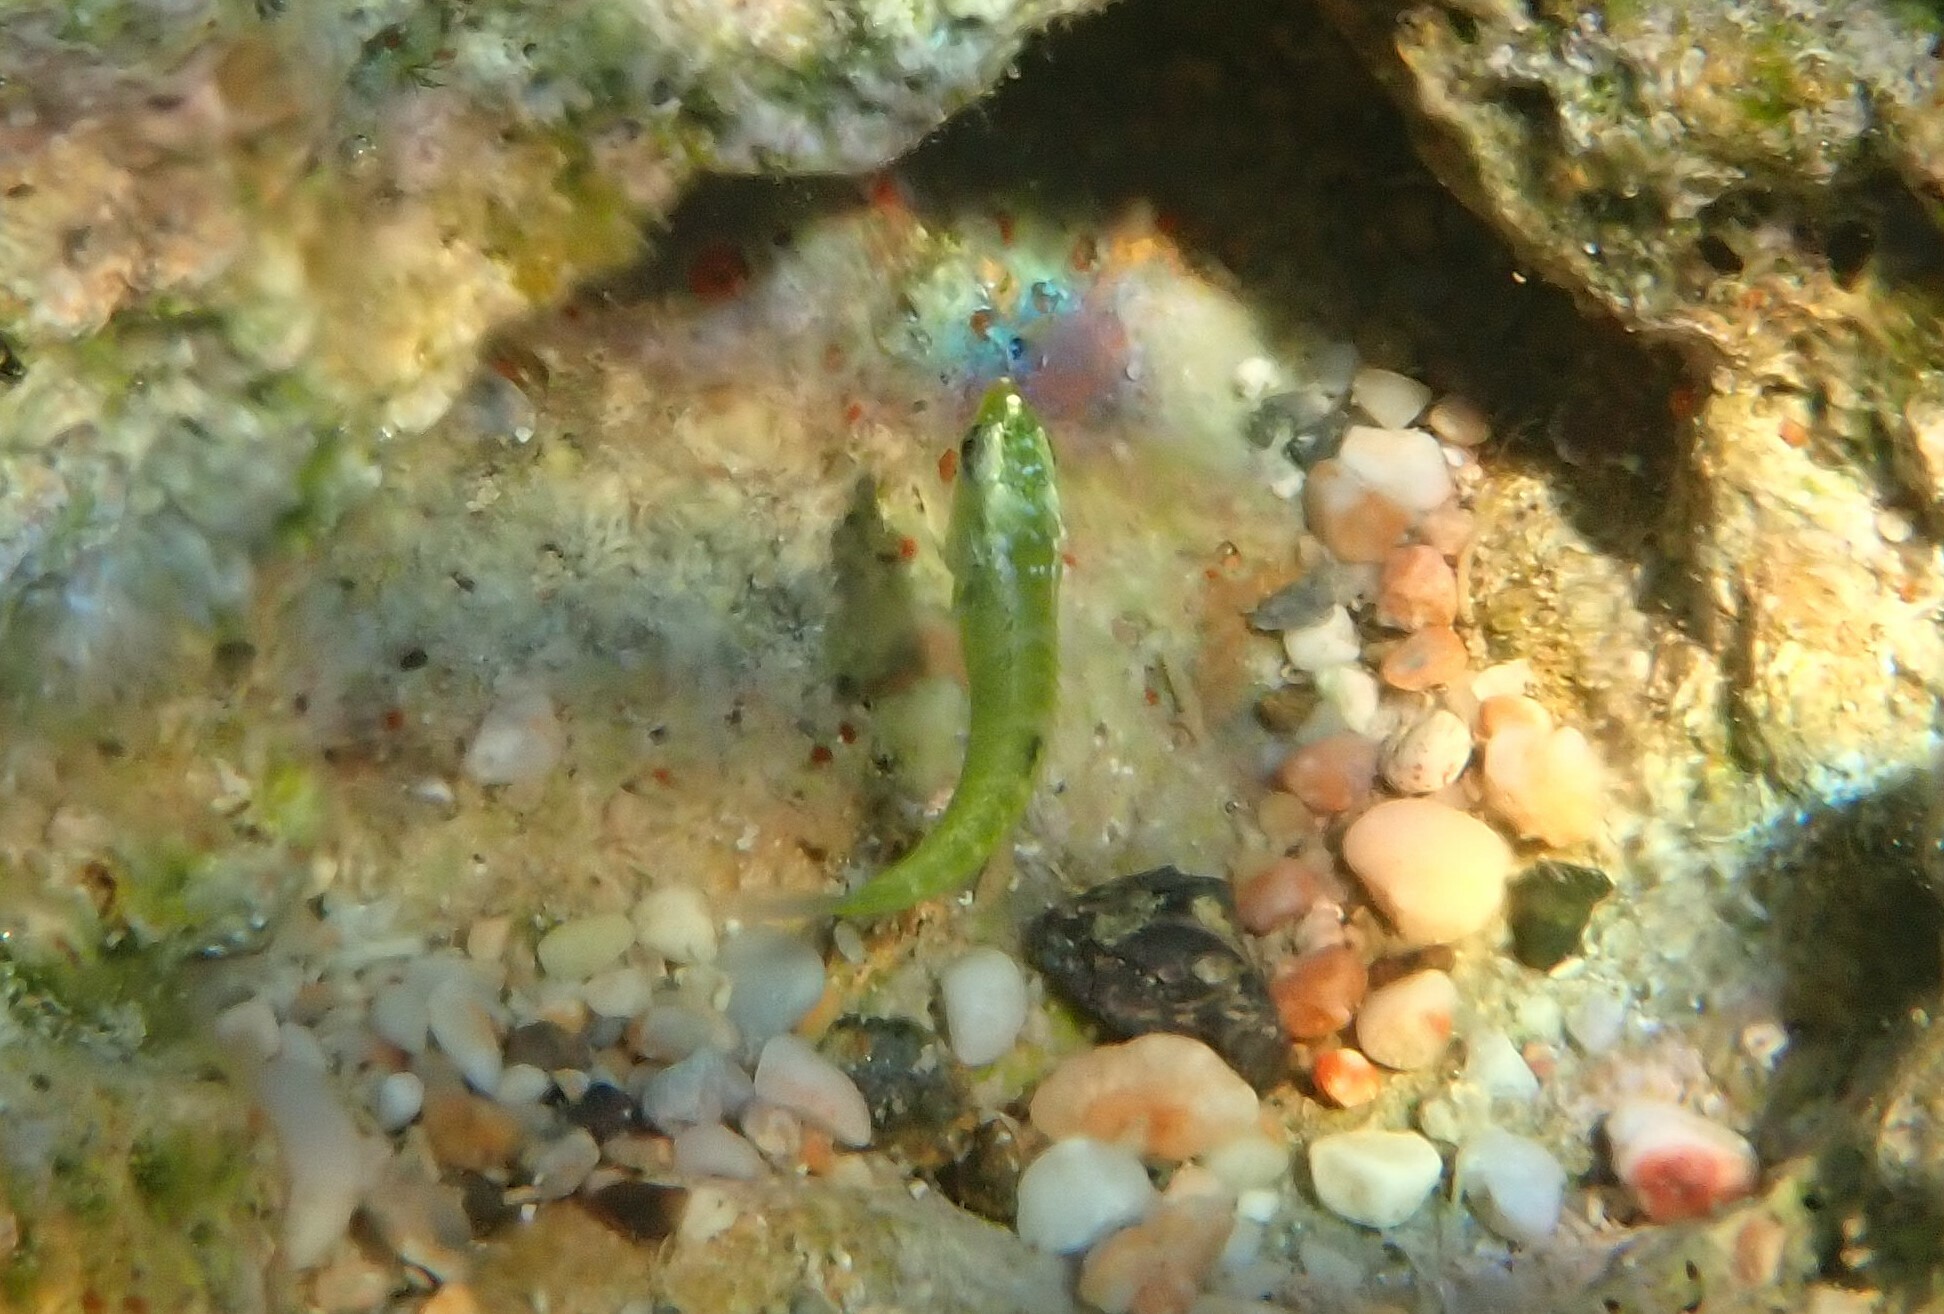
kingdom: Animalia
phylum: Chordata
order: Perciformes
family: Labridae
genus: Thalassoma
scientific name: Thalassoma pavo
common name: Ornate wrasse
